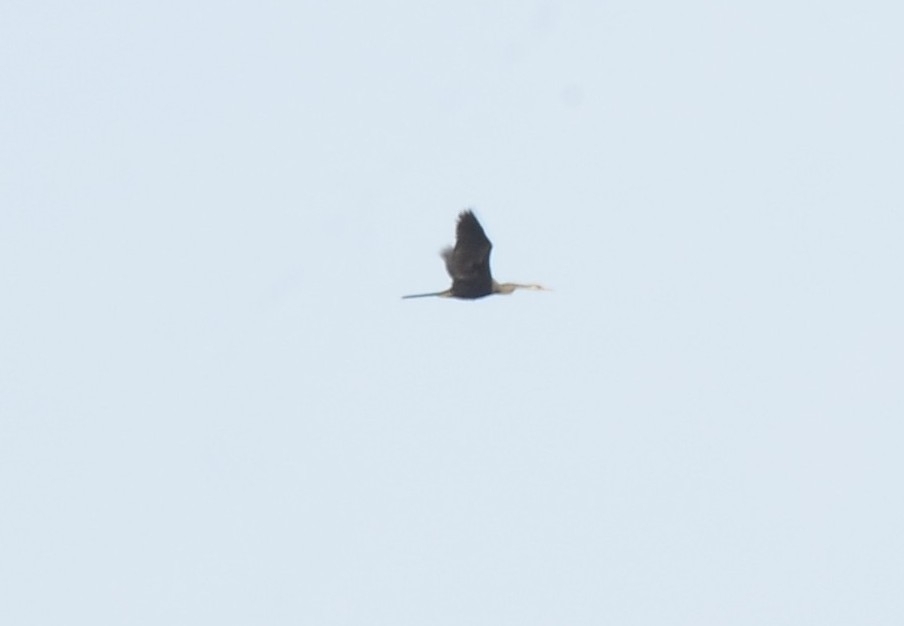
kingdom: Animalia
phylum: Chordata
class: Aves
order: Suliformes
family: Anhingidae
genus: Anhinga
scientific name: Anhinga melanogaster
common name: Oriental darter
